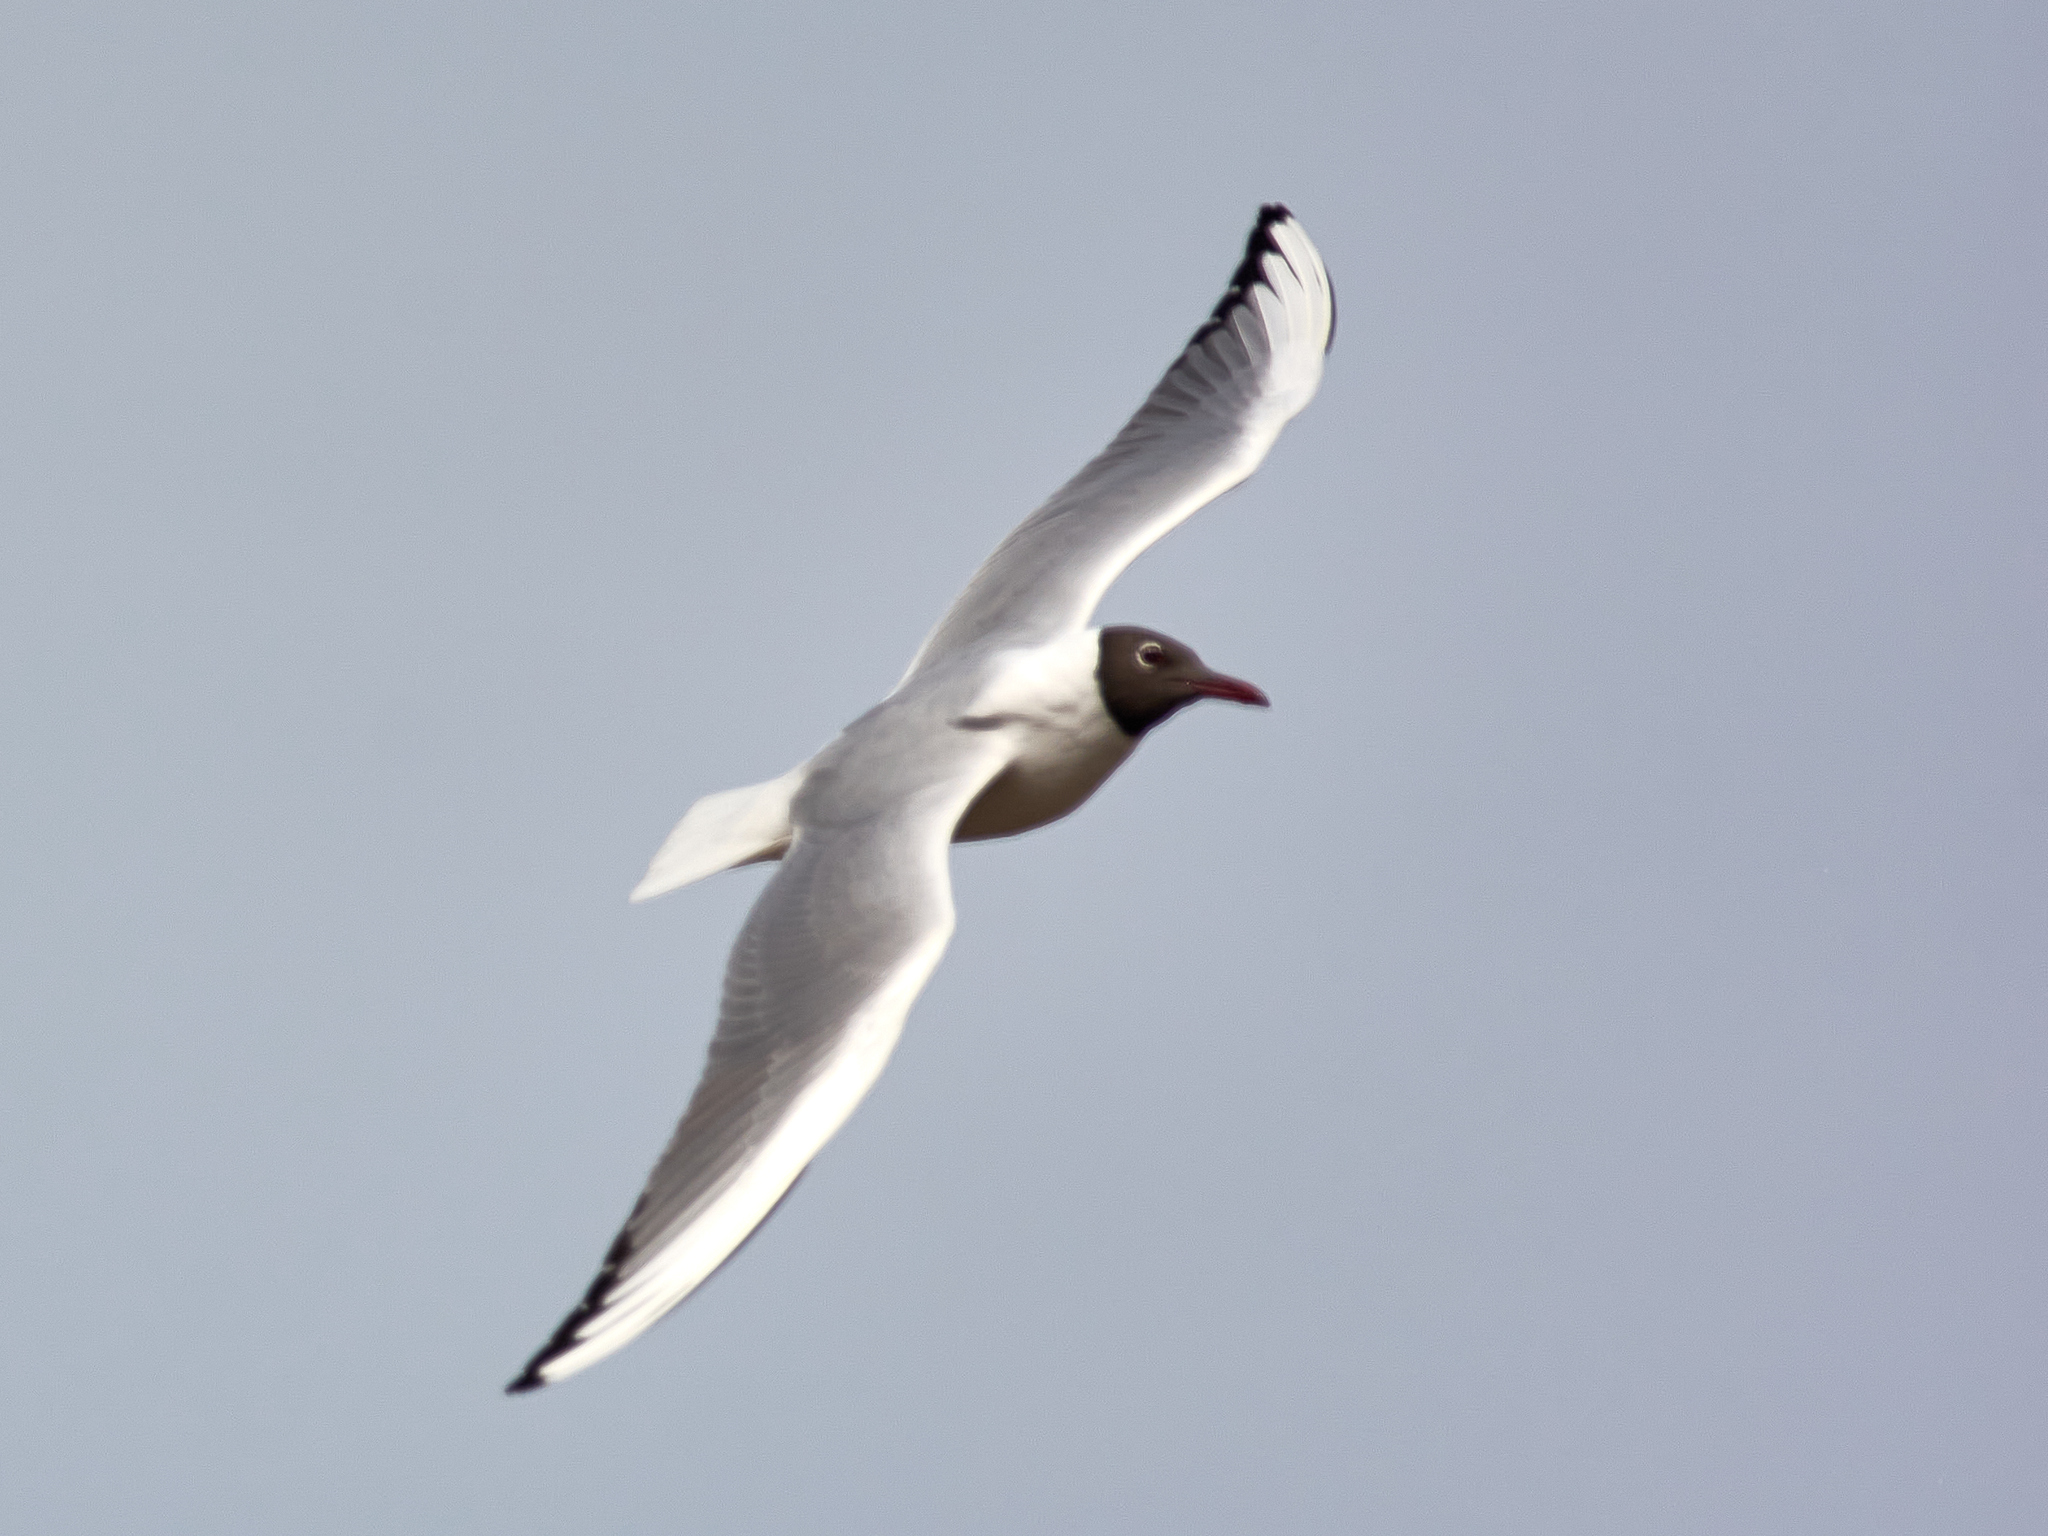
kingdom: Animalia
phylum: Chordata
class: Aves
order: Charadriiformes
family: Laridae
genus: Chroicocephalus
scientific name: Chroicocephalus ridibundus
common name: Black-headed gull
